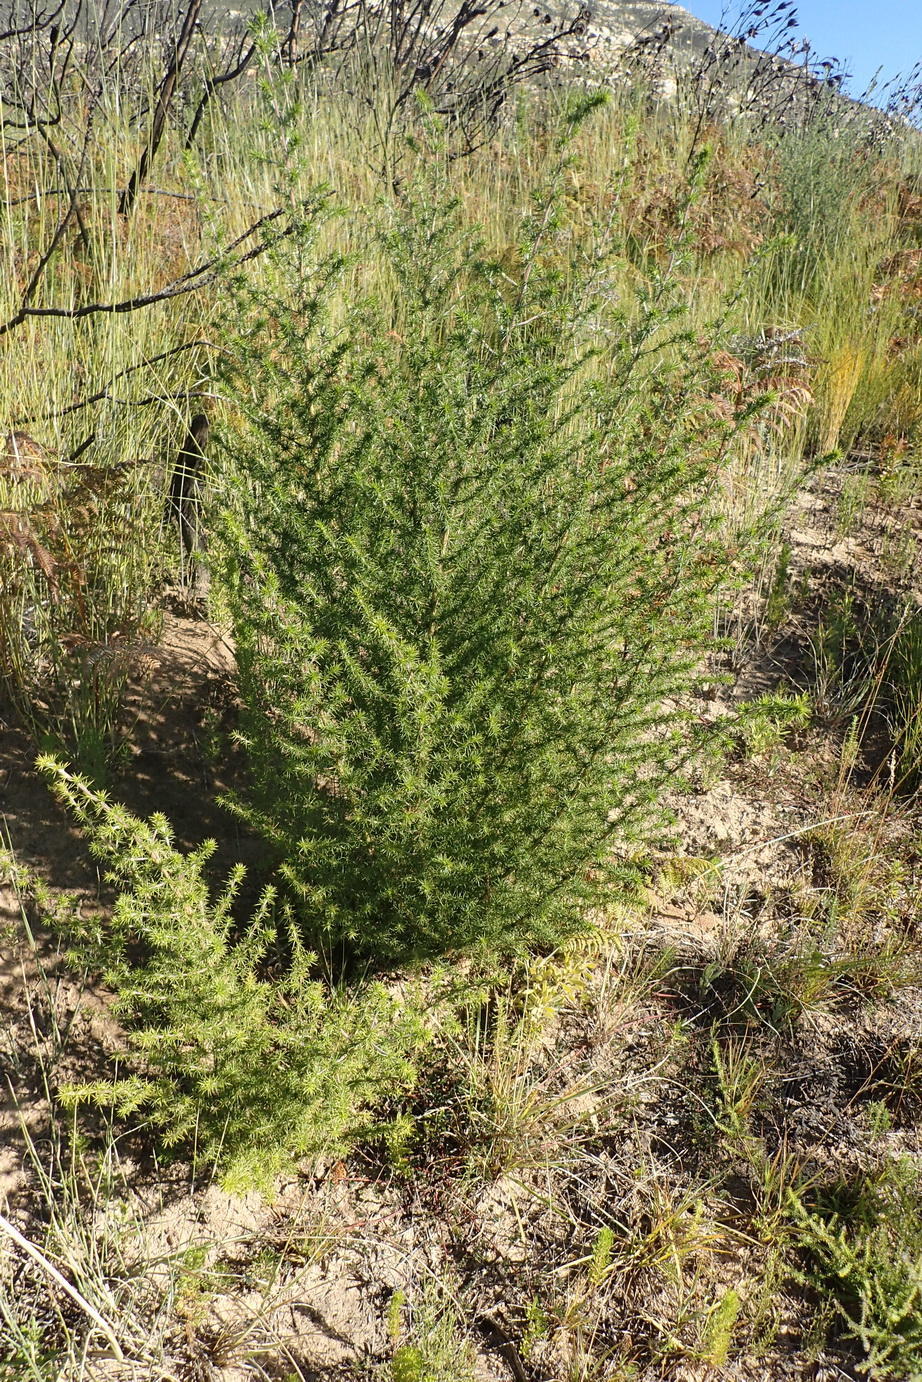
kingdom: Plantae
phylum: Tracheophyta
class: Magnoliopsida
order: Fabales
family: Fabaceae
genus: Aspalathus
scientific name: Aspalathus hirta
